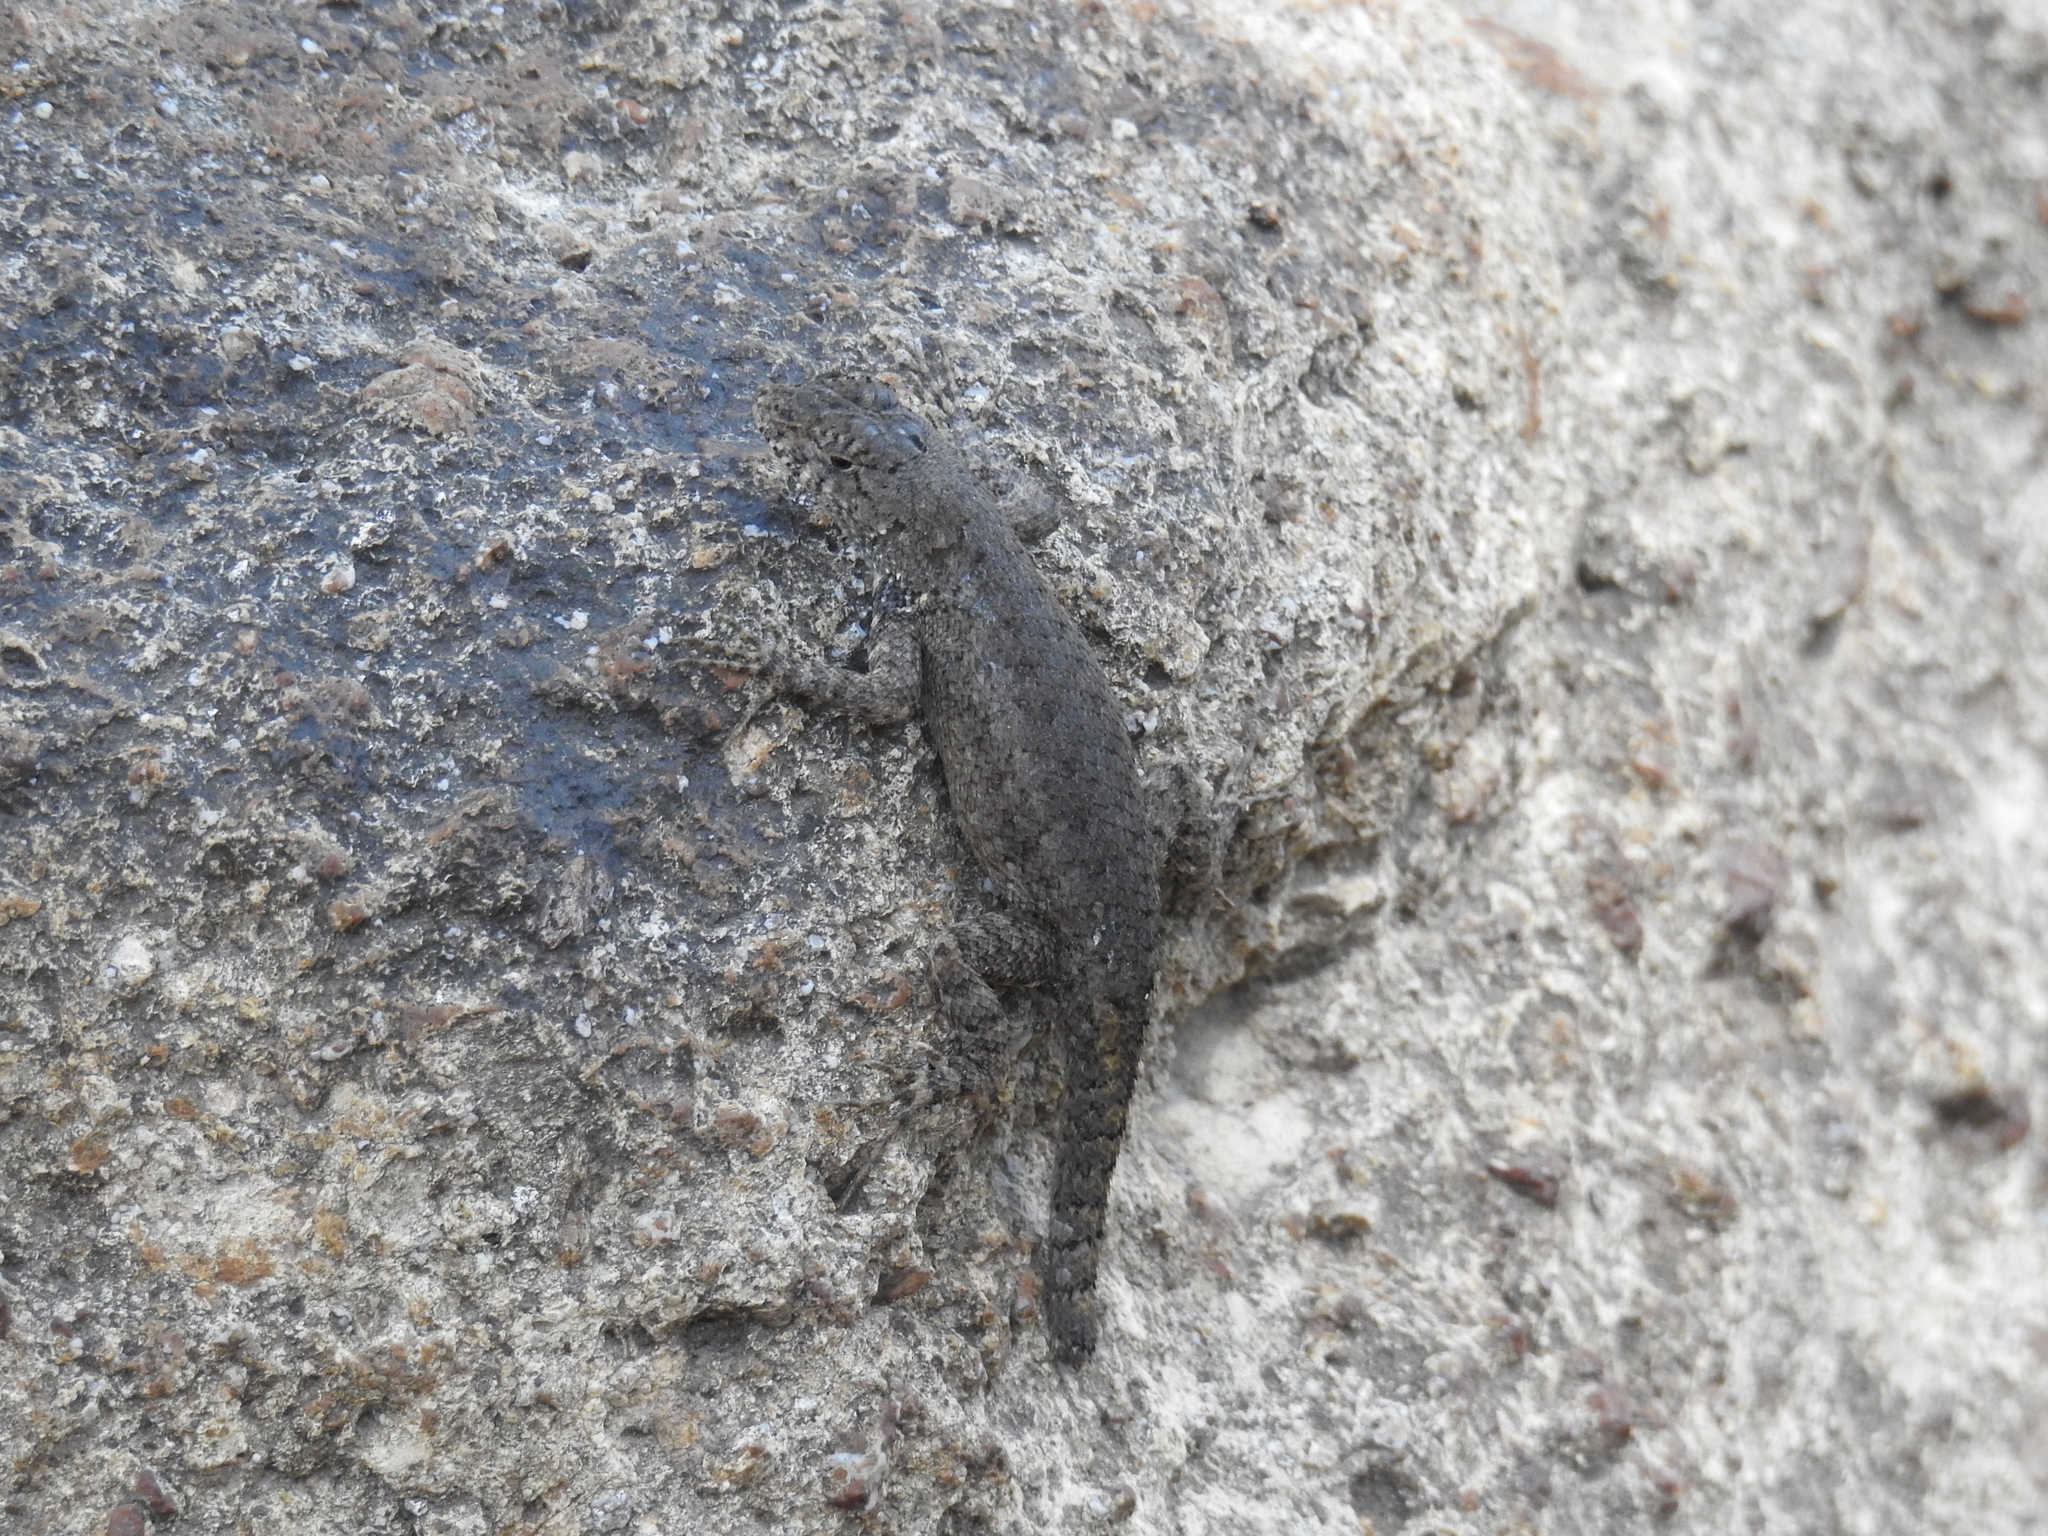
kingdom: Animalia
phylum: Chordata
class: Squamata
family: Phrynosomatidae
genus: Sceloporus
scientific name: Sceloporus nelsoni
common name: Nelson's spiny lizard
